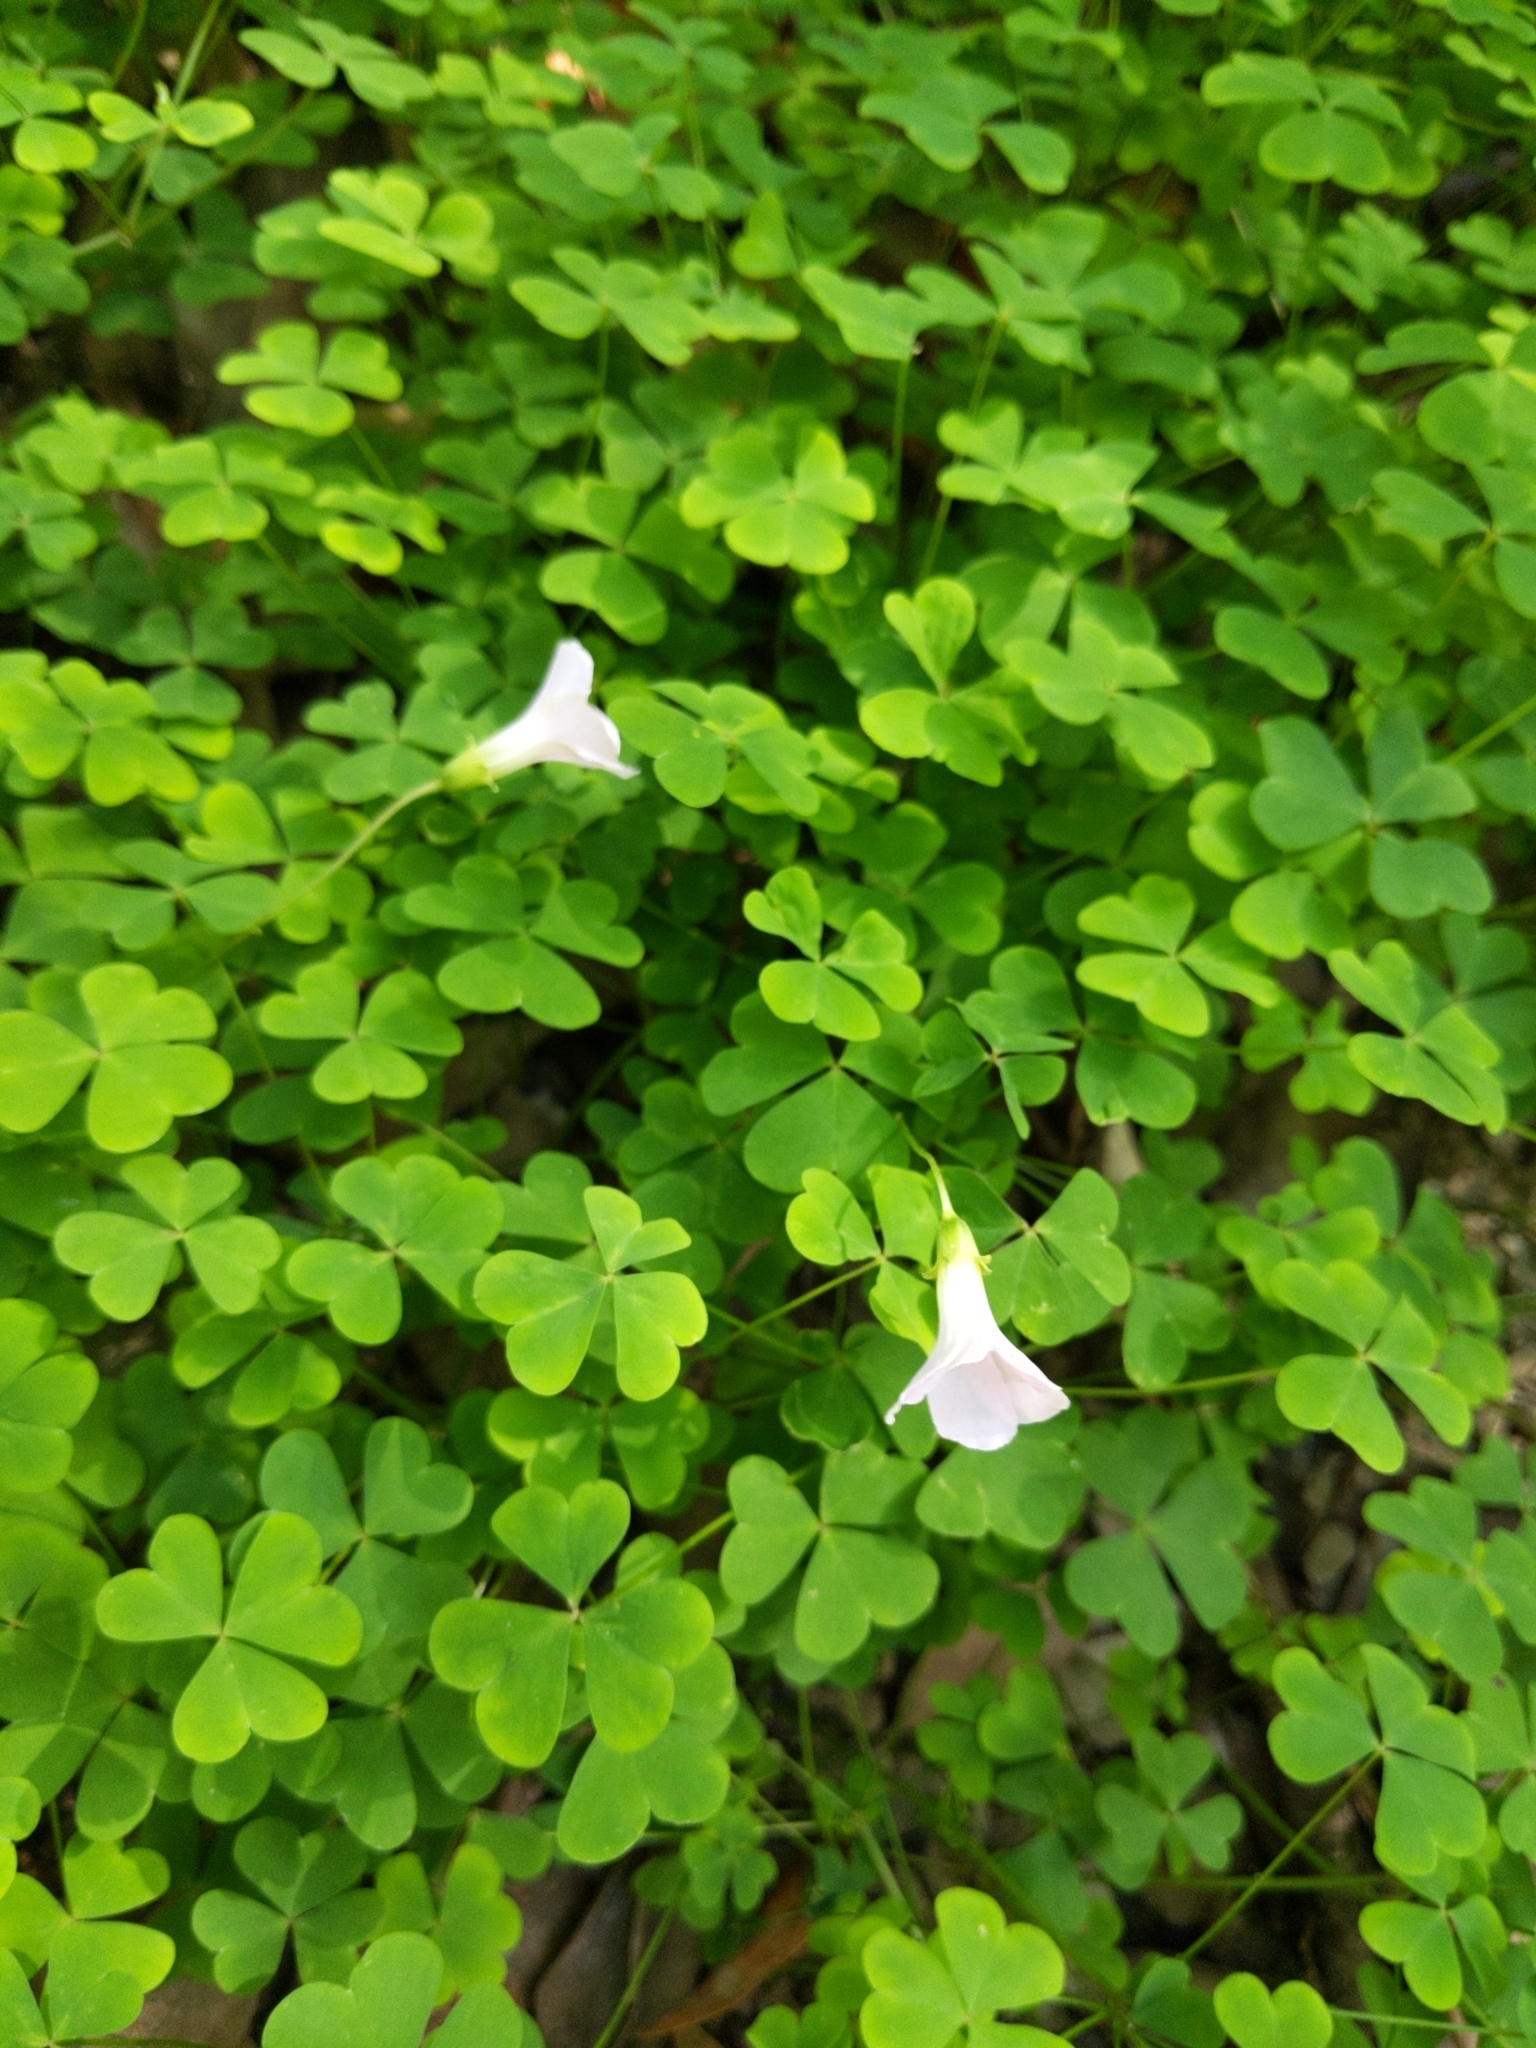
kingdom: Plantae
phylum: Tracheophyta
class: Magnoliopsida
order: Oxalidales
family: Oxalidaceae
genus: Oxalis
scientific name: Oxalis incarnata
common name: Pale pink-sorrel
